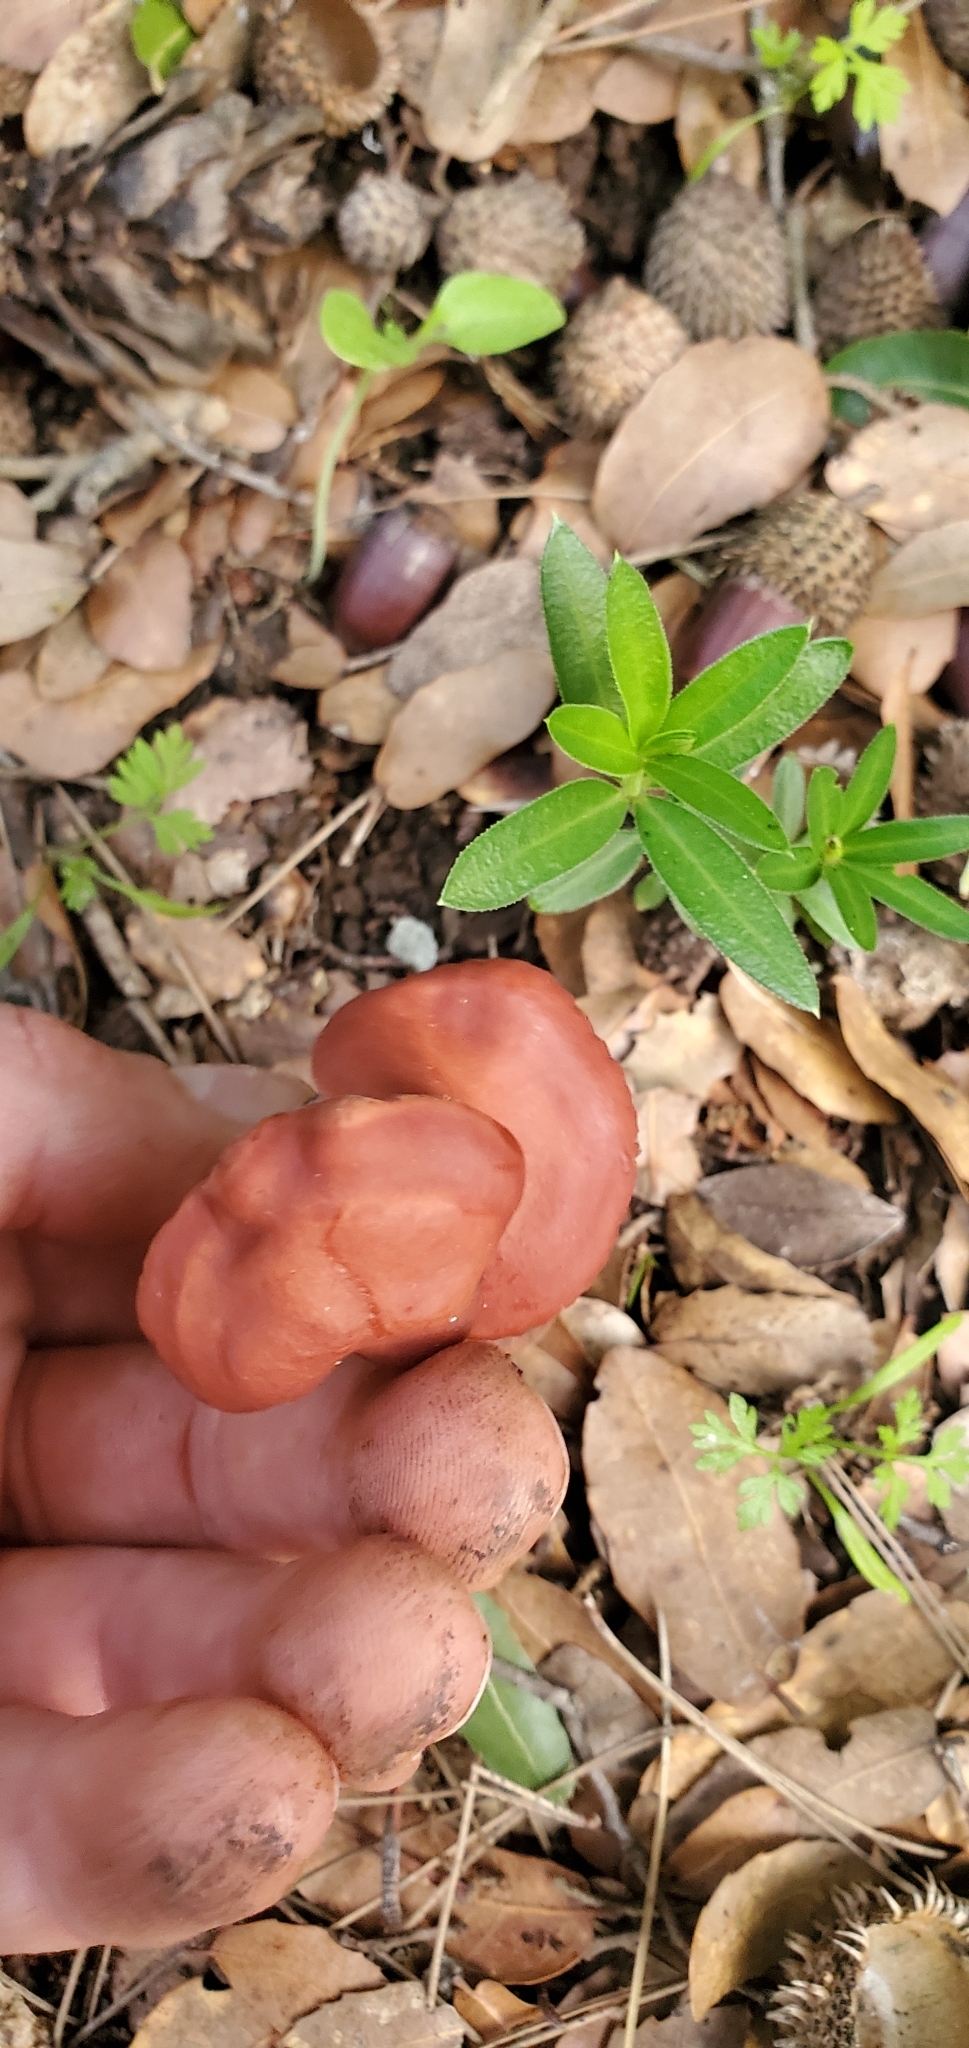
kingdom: Fungi
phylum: Basidiomycota
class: Agaricomycetes
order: Agaricales
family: Omphalotaceae
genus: Omphalotus
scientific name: Omphalotus olearius
